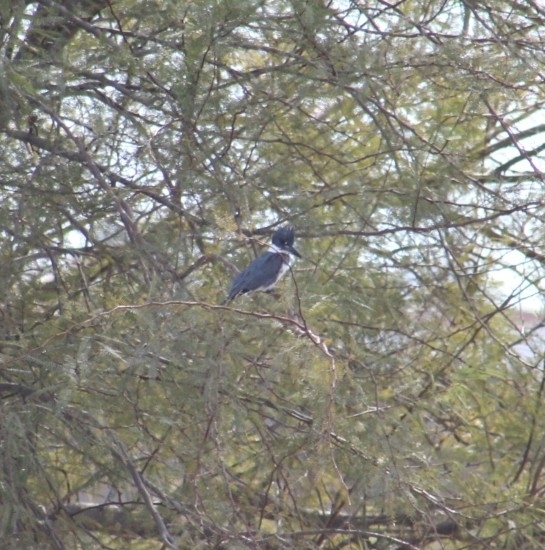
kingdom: Animalia
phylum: Chordata
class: Aves
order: Coraciiformes
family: Alcedinidae
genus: Megaceryle
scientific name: Megaceryle alcyon
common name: Belted kingfisher
